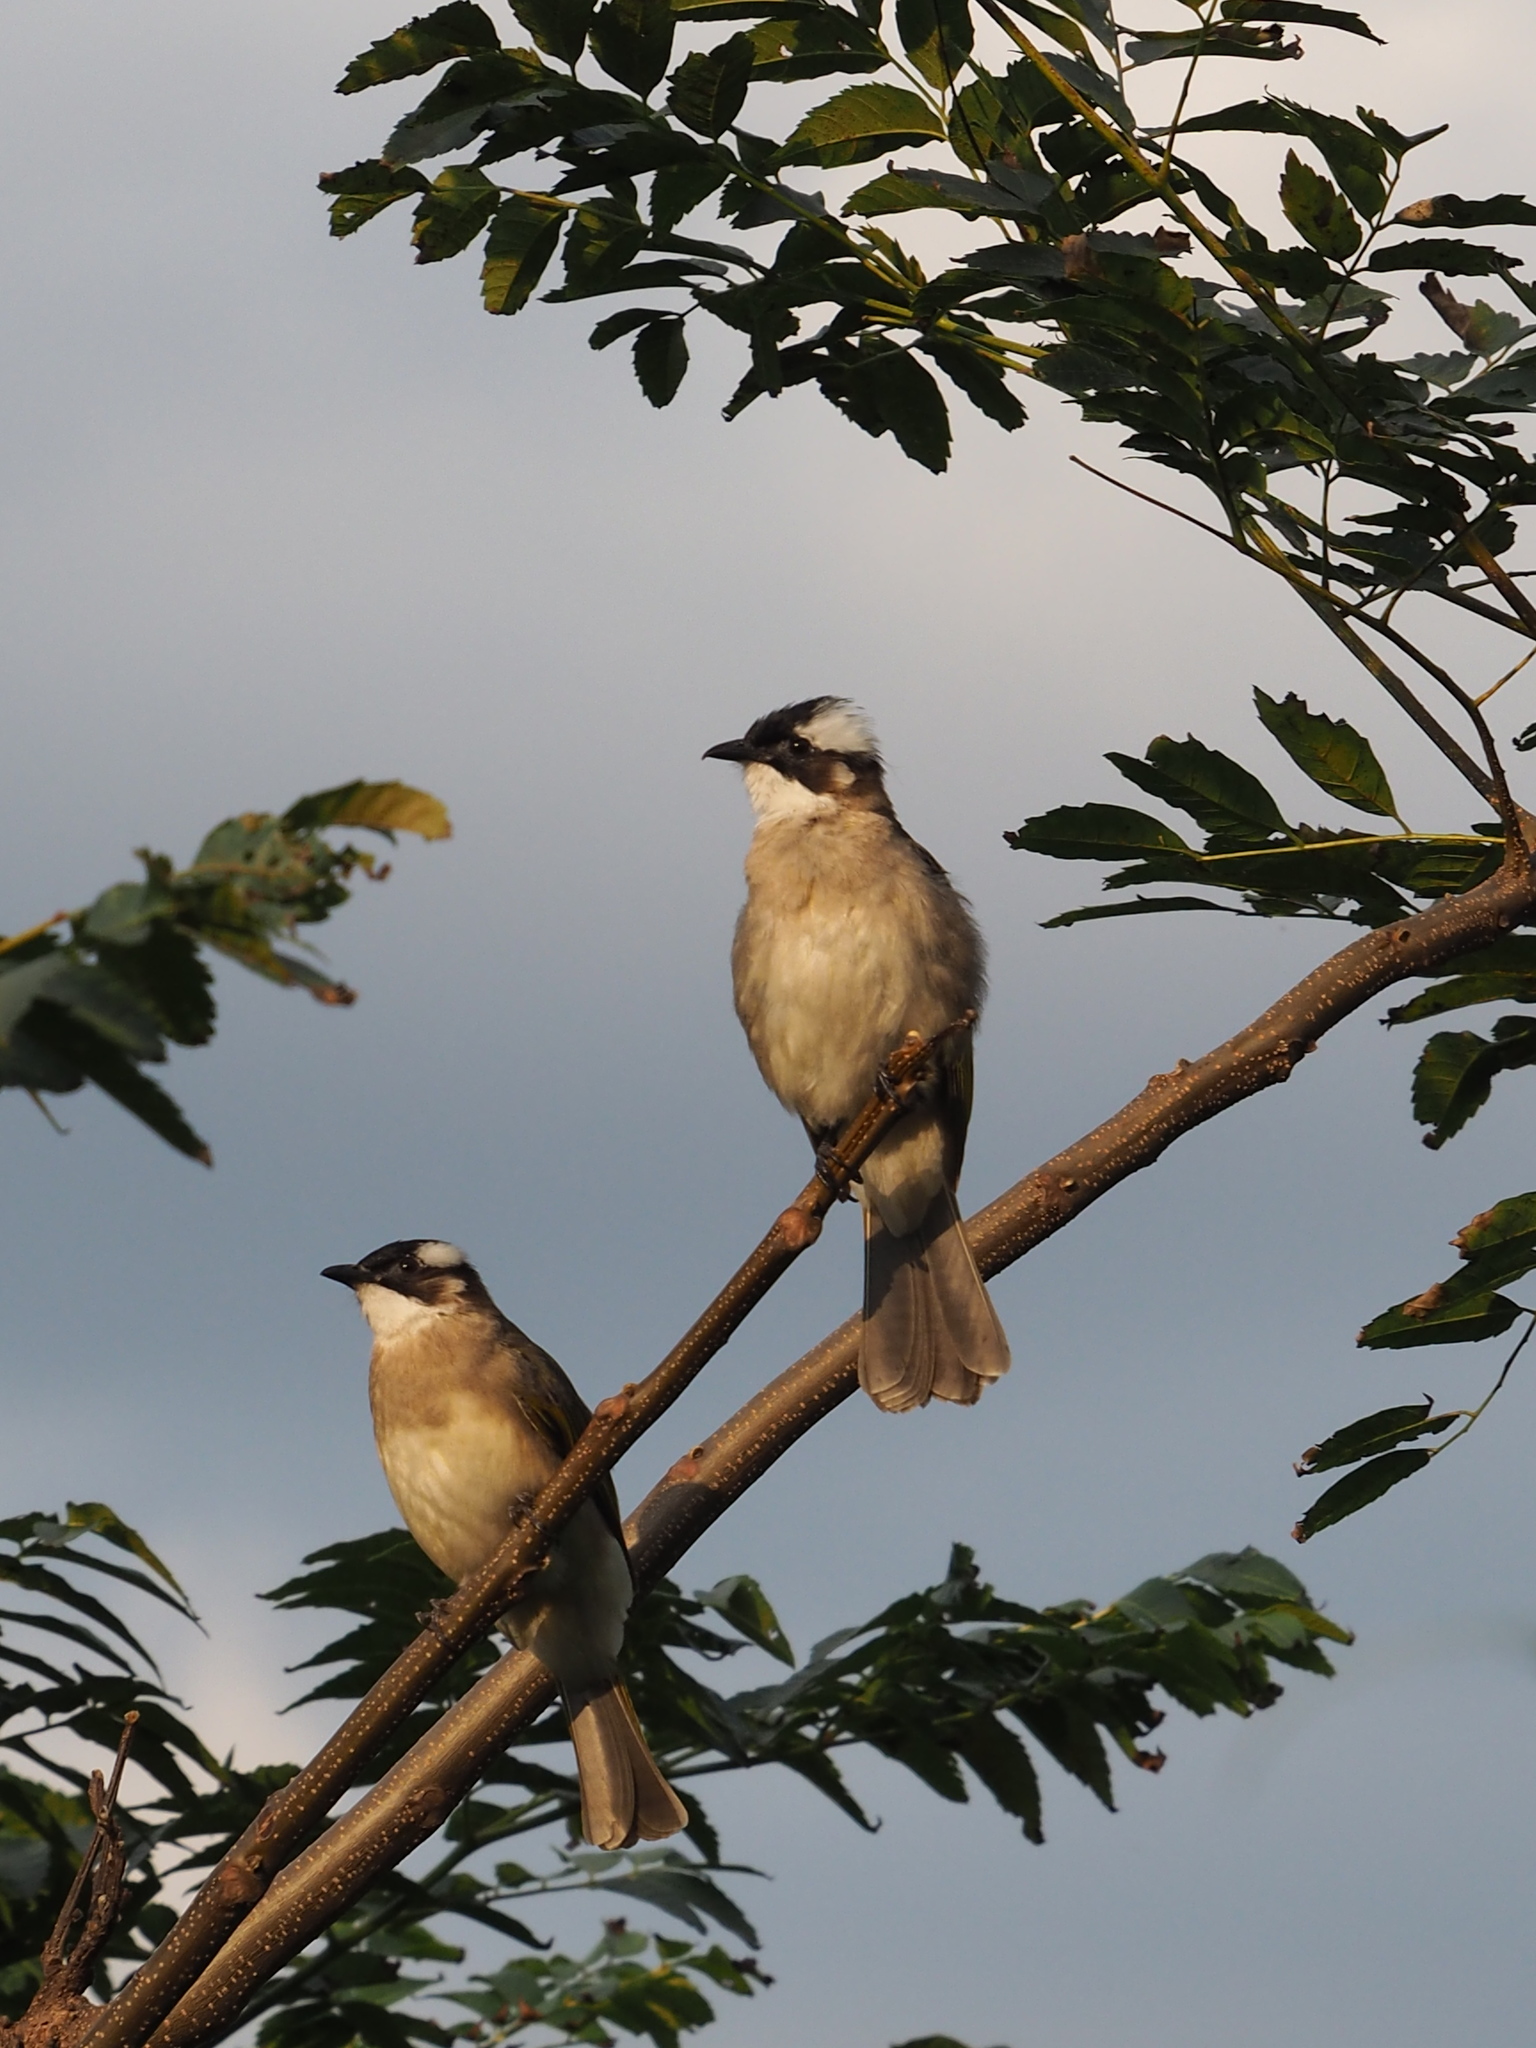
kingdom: Animalia
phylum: Chordata
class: Aves
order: Passeriformes
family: Pycnonotidae
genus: Pycnonotus
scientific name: Pycnonotus sinensis
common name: Light-vented bulbul
